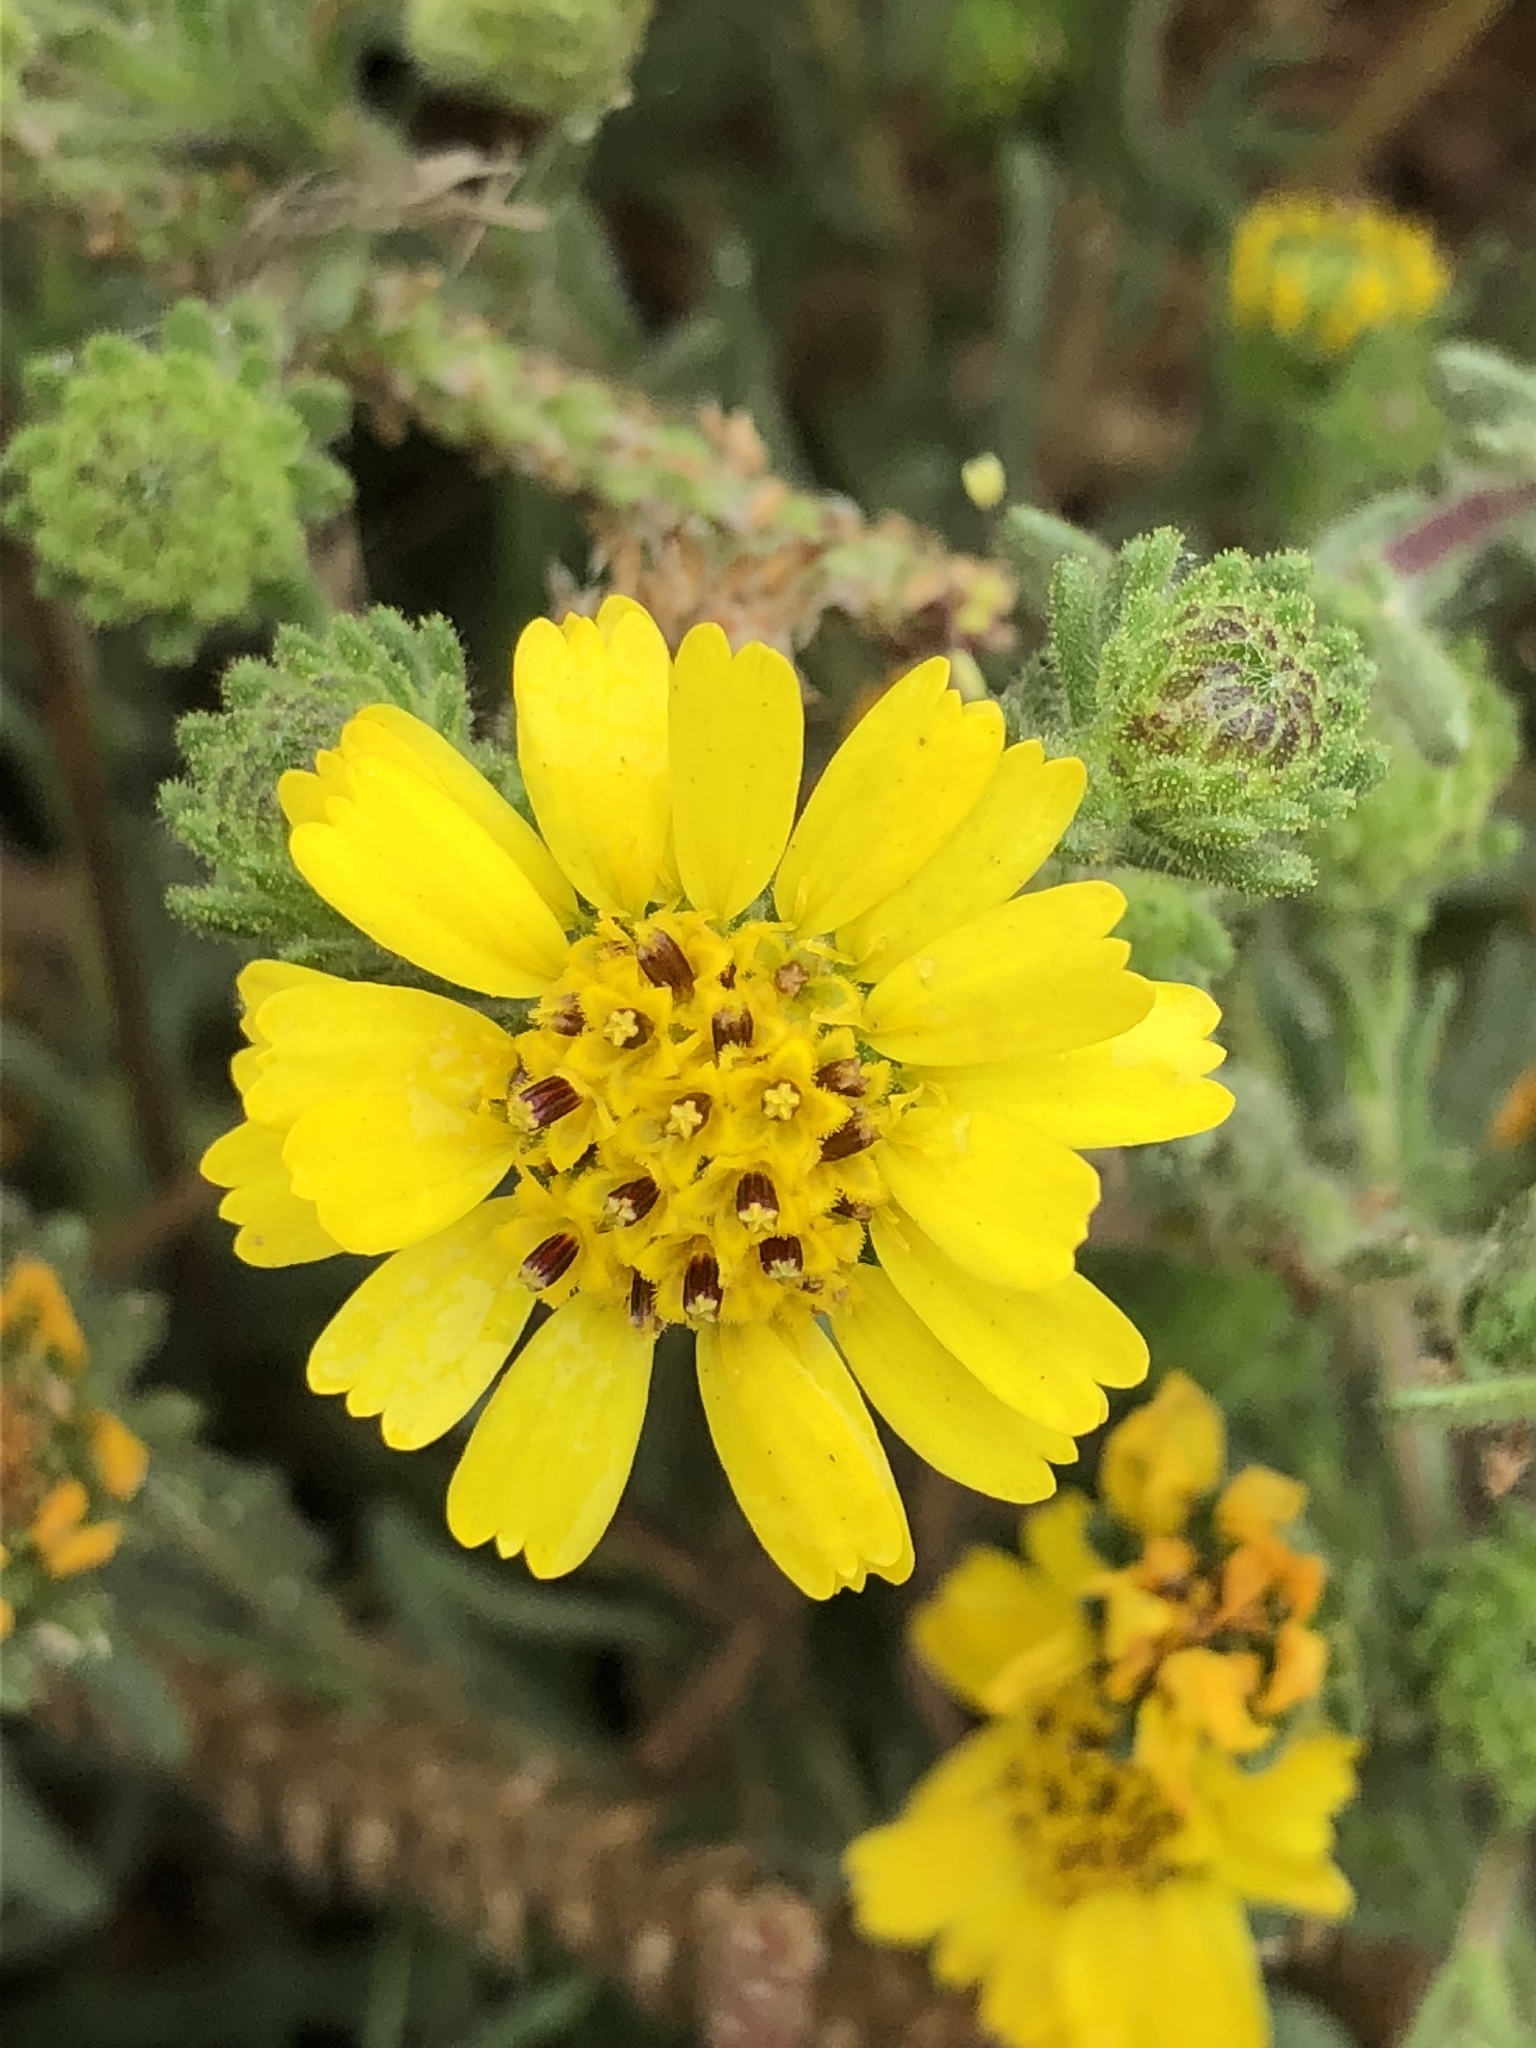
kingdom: Plantae
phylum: Tracheophyta
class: Magnoliopsida
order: Asterales
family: Asteraceae
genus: Deinandra
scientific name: Deinandra corymbosa
